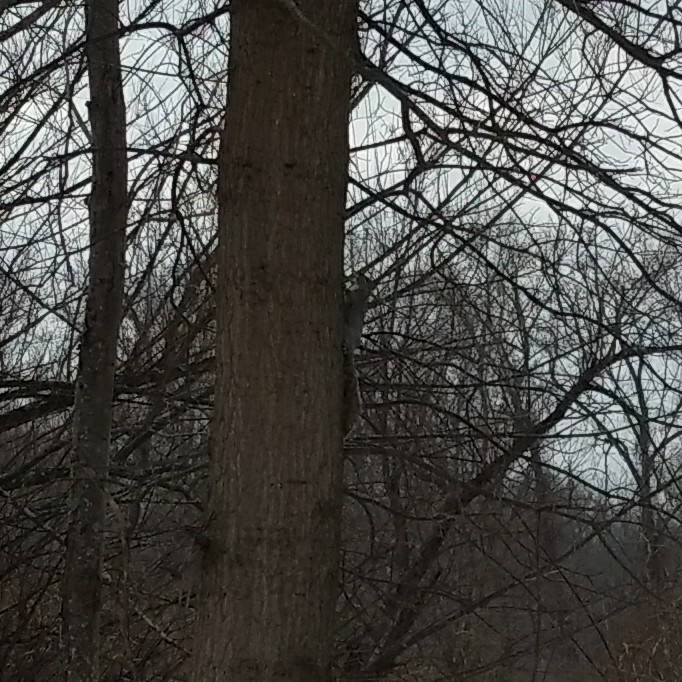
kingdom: Animalia
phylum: Chordata
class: Mammalia
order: Rodentia
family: Sciuridae
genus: Sciurus
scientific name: Sciurus carolinensis
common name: Eastern gray squirrel
